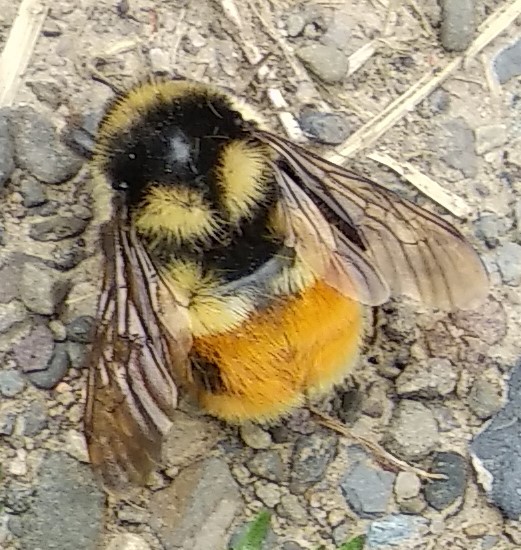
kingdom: Animalia
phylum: Arthropoda
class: Insecta
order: Hymenoptera
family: Apidae
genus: Bombus
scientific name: Bombus ternarius
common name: Tri-colored bumble bee
